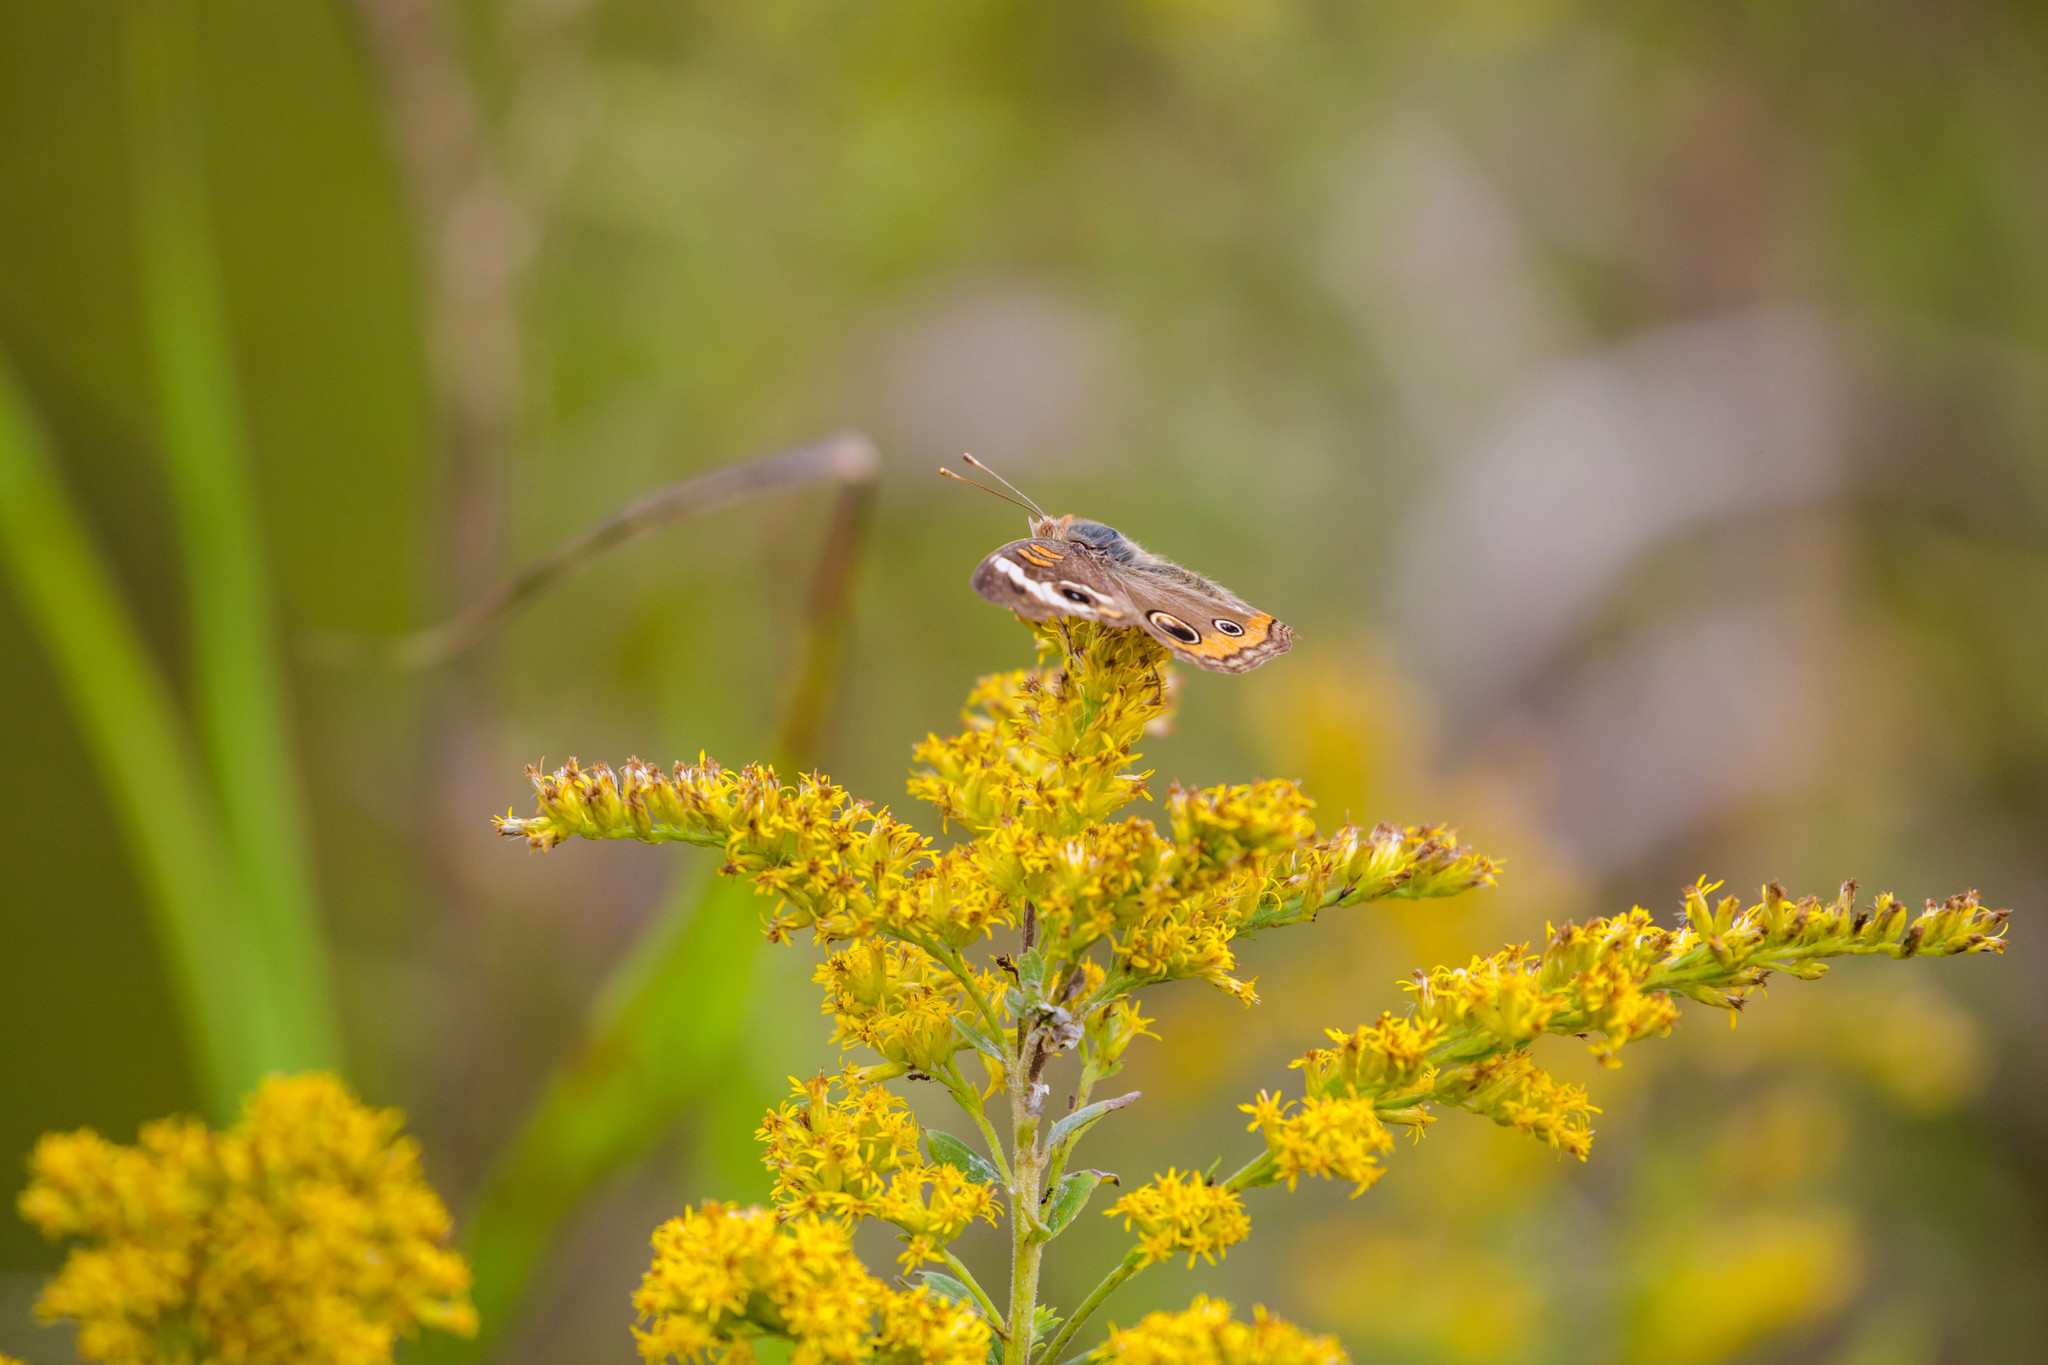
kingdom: Animalia
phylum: Arthropoda
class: Insecta
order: Lepidoptera
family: Nymphalidae
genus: Junonia
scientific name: Junonia coenia
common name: Common buckeye
